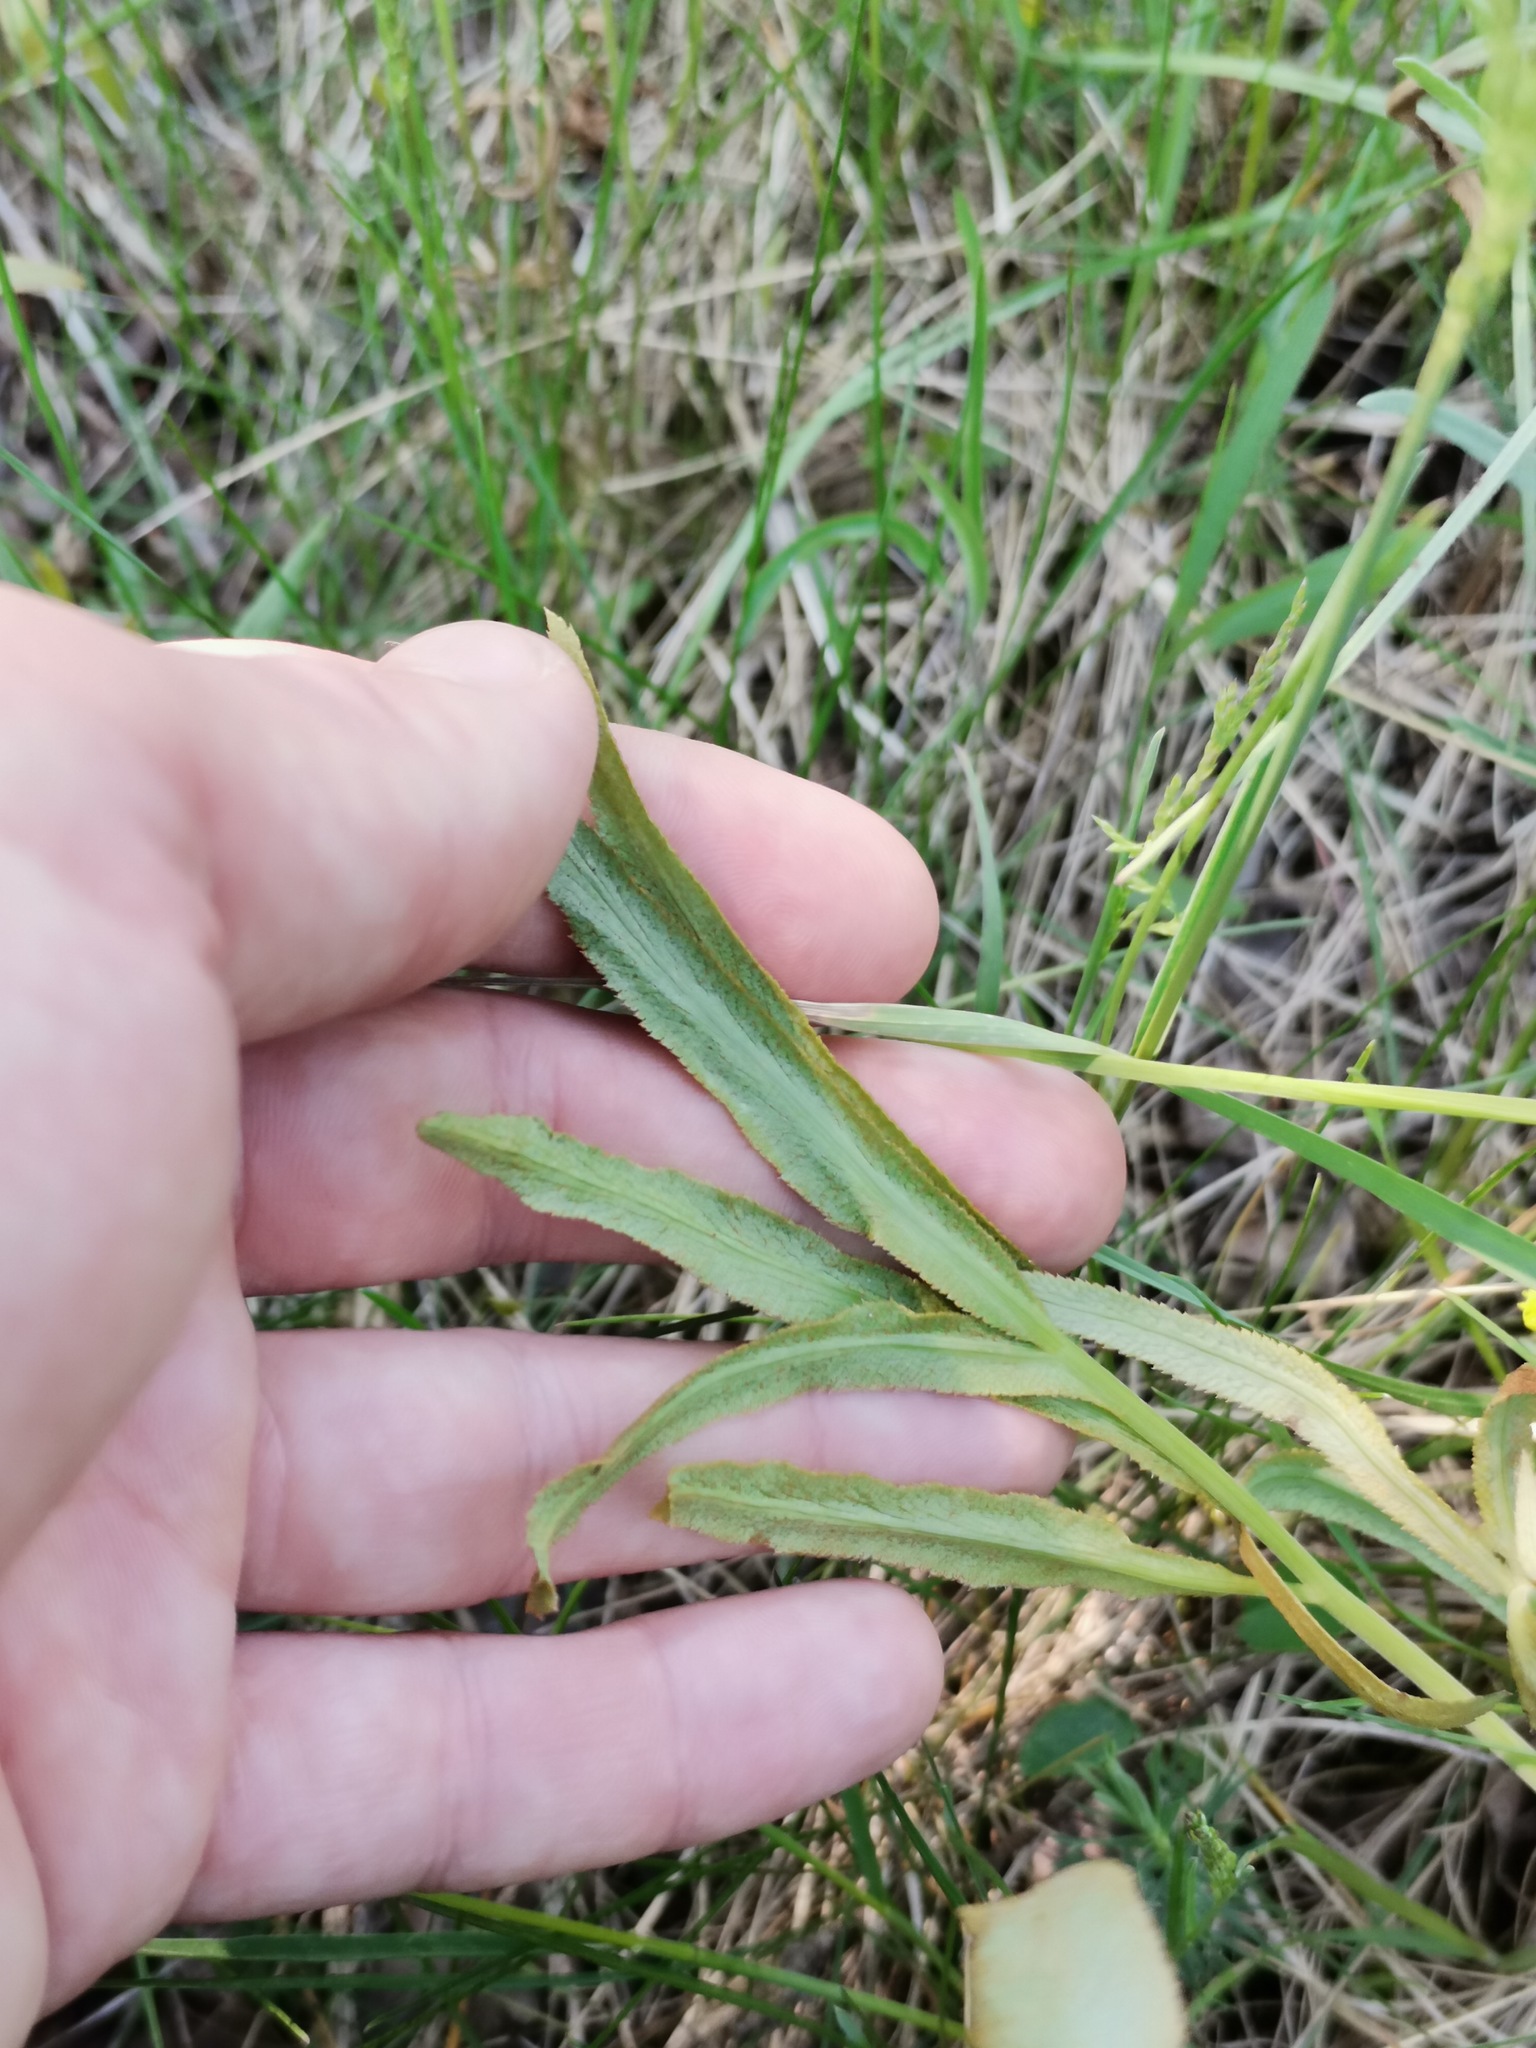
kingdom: Plantae
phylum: Tracheophyta
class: Magnoliopsida
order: Apiales
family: Apiaceae
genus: Falcaria
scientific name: Falcaria vulgaris
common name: Longleaf
